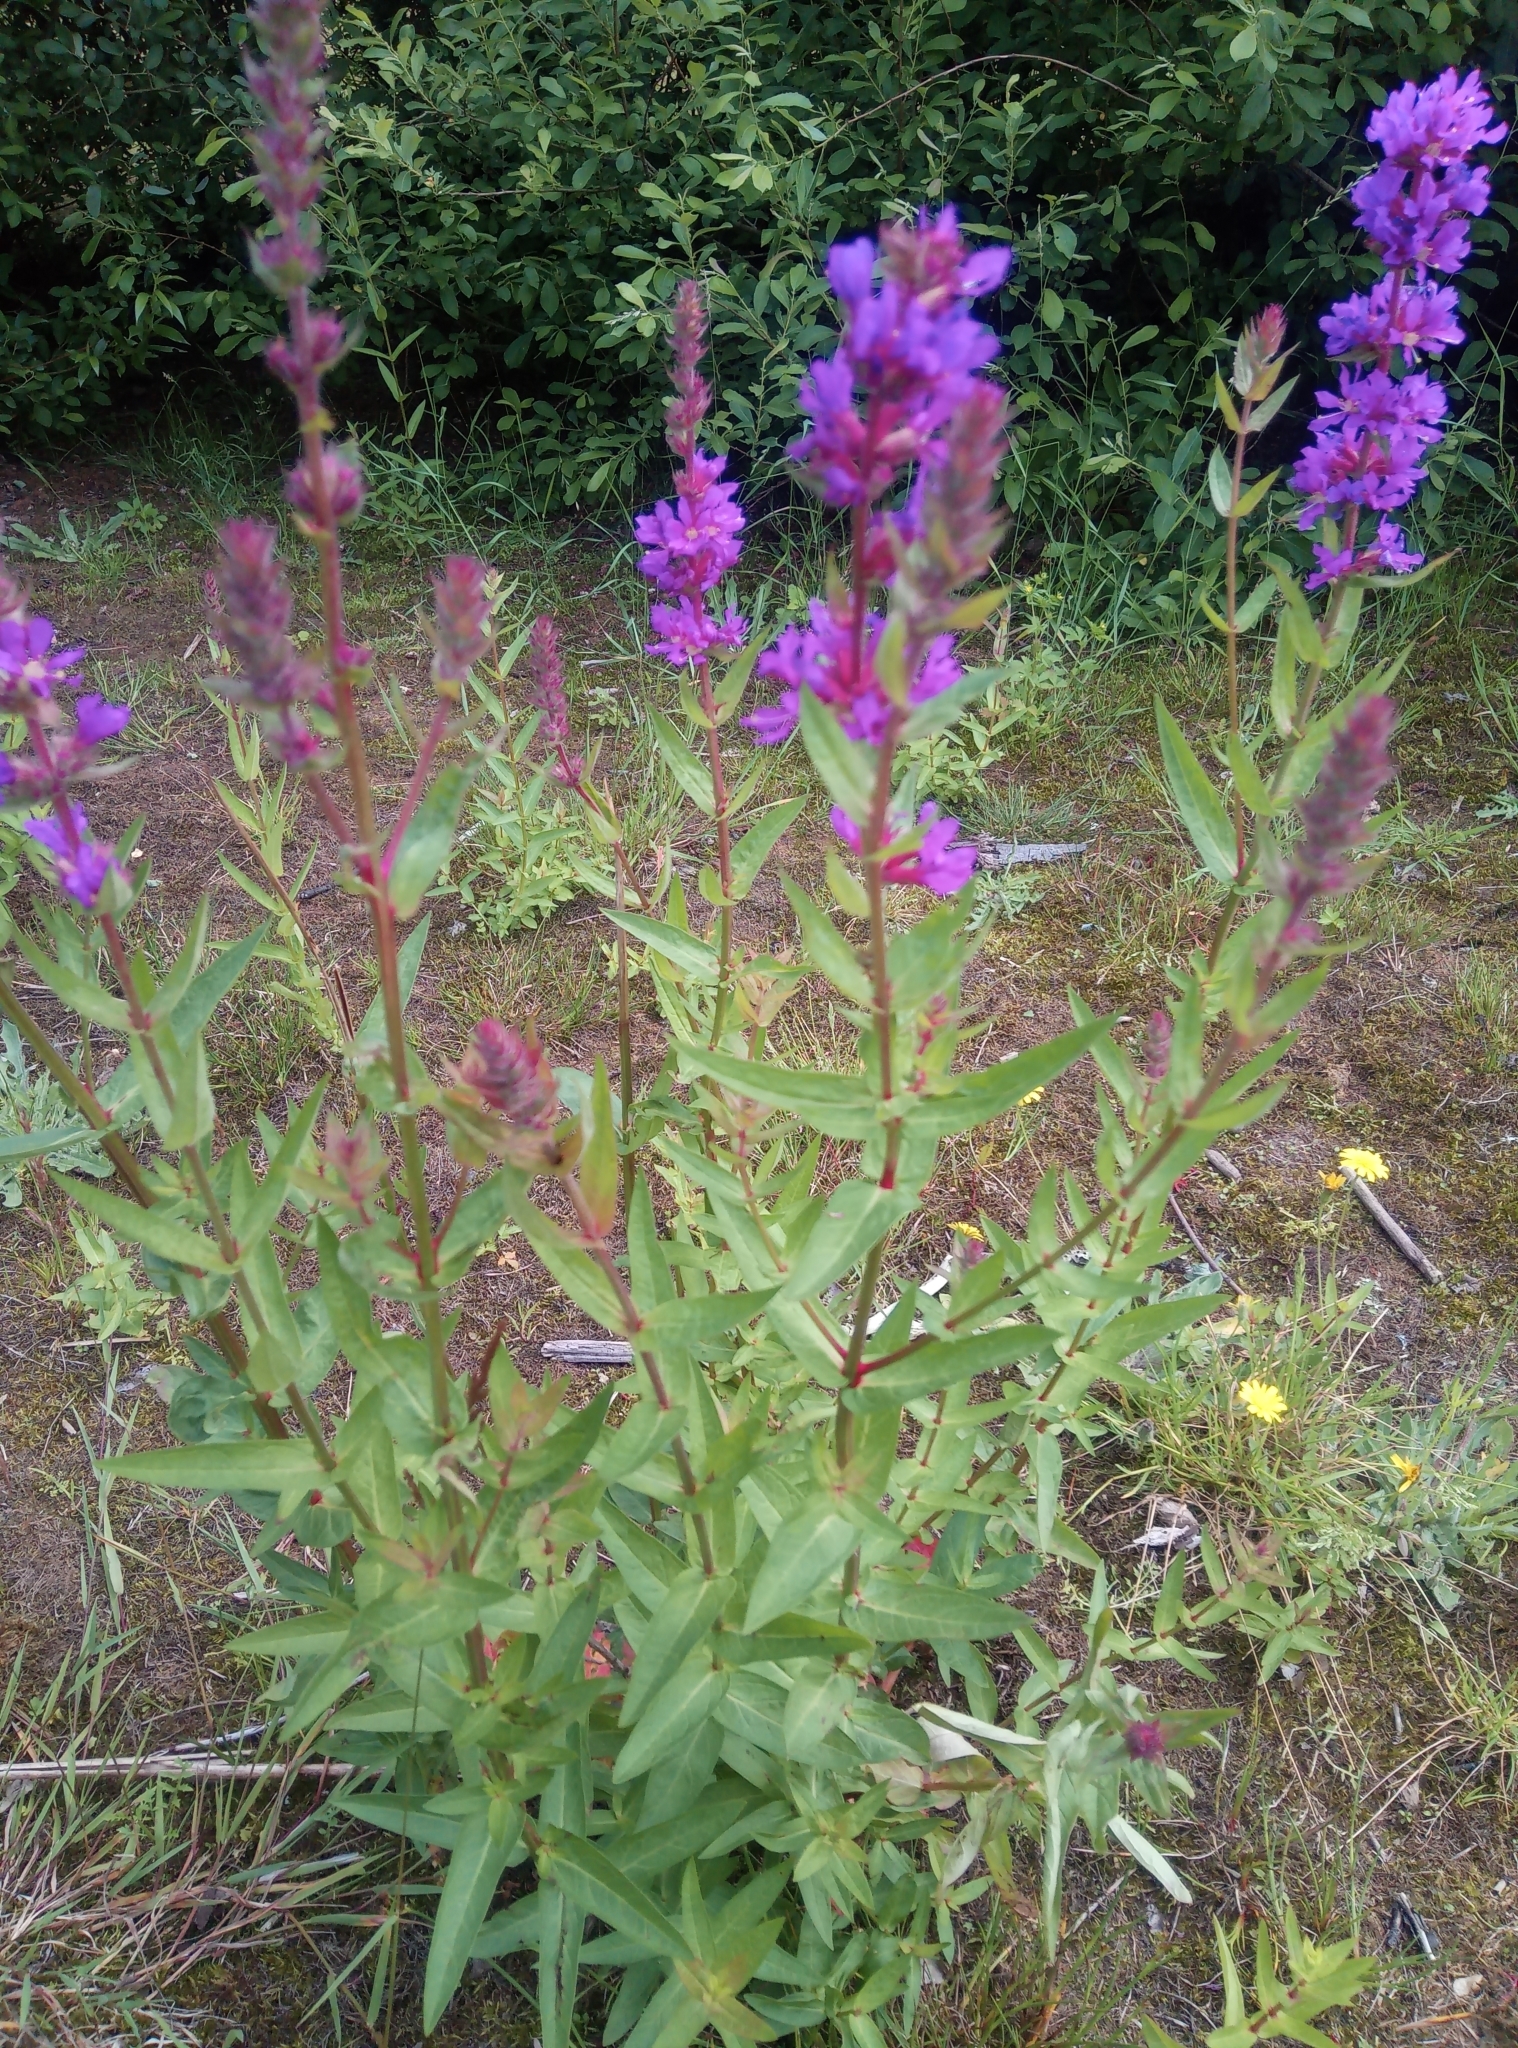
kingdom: Plantae
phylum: Tracheophyta
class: Magnoliopsida
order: Myrtales
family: Lythraceae
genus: Lythrum
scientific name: Lythrum salicaria
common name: Purple loosestrife
